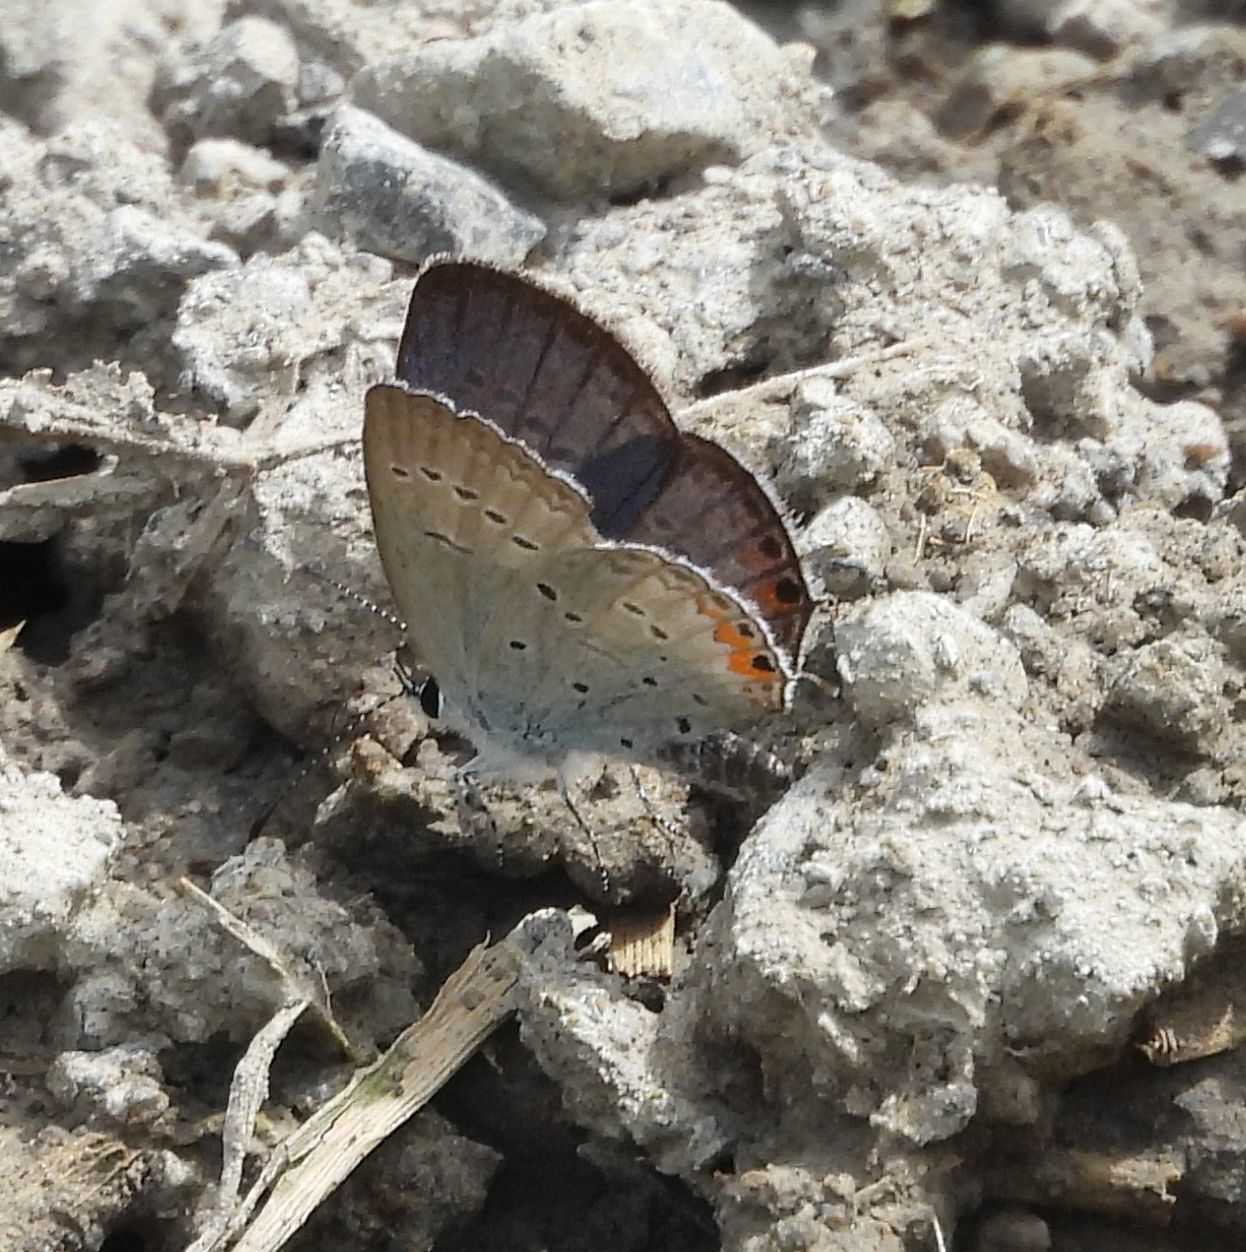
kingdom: Animalia
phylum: Arthropoda
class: Insecta
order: Lepidoptera
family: Lycaenidae
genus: Elkalyce
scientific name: Elkalyce comyntas
